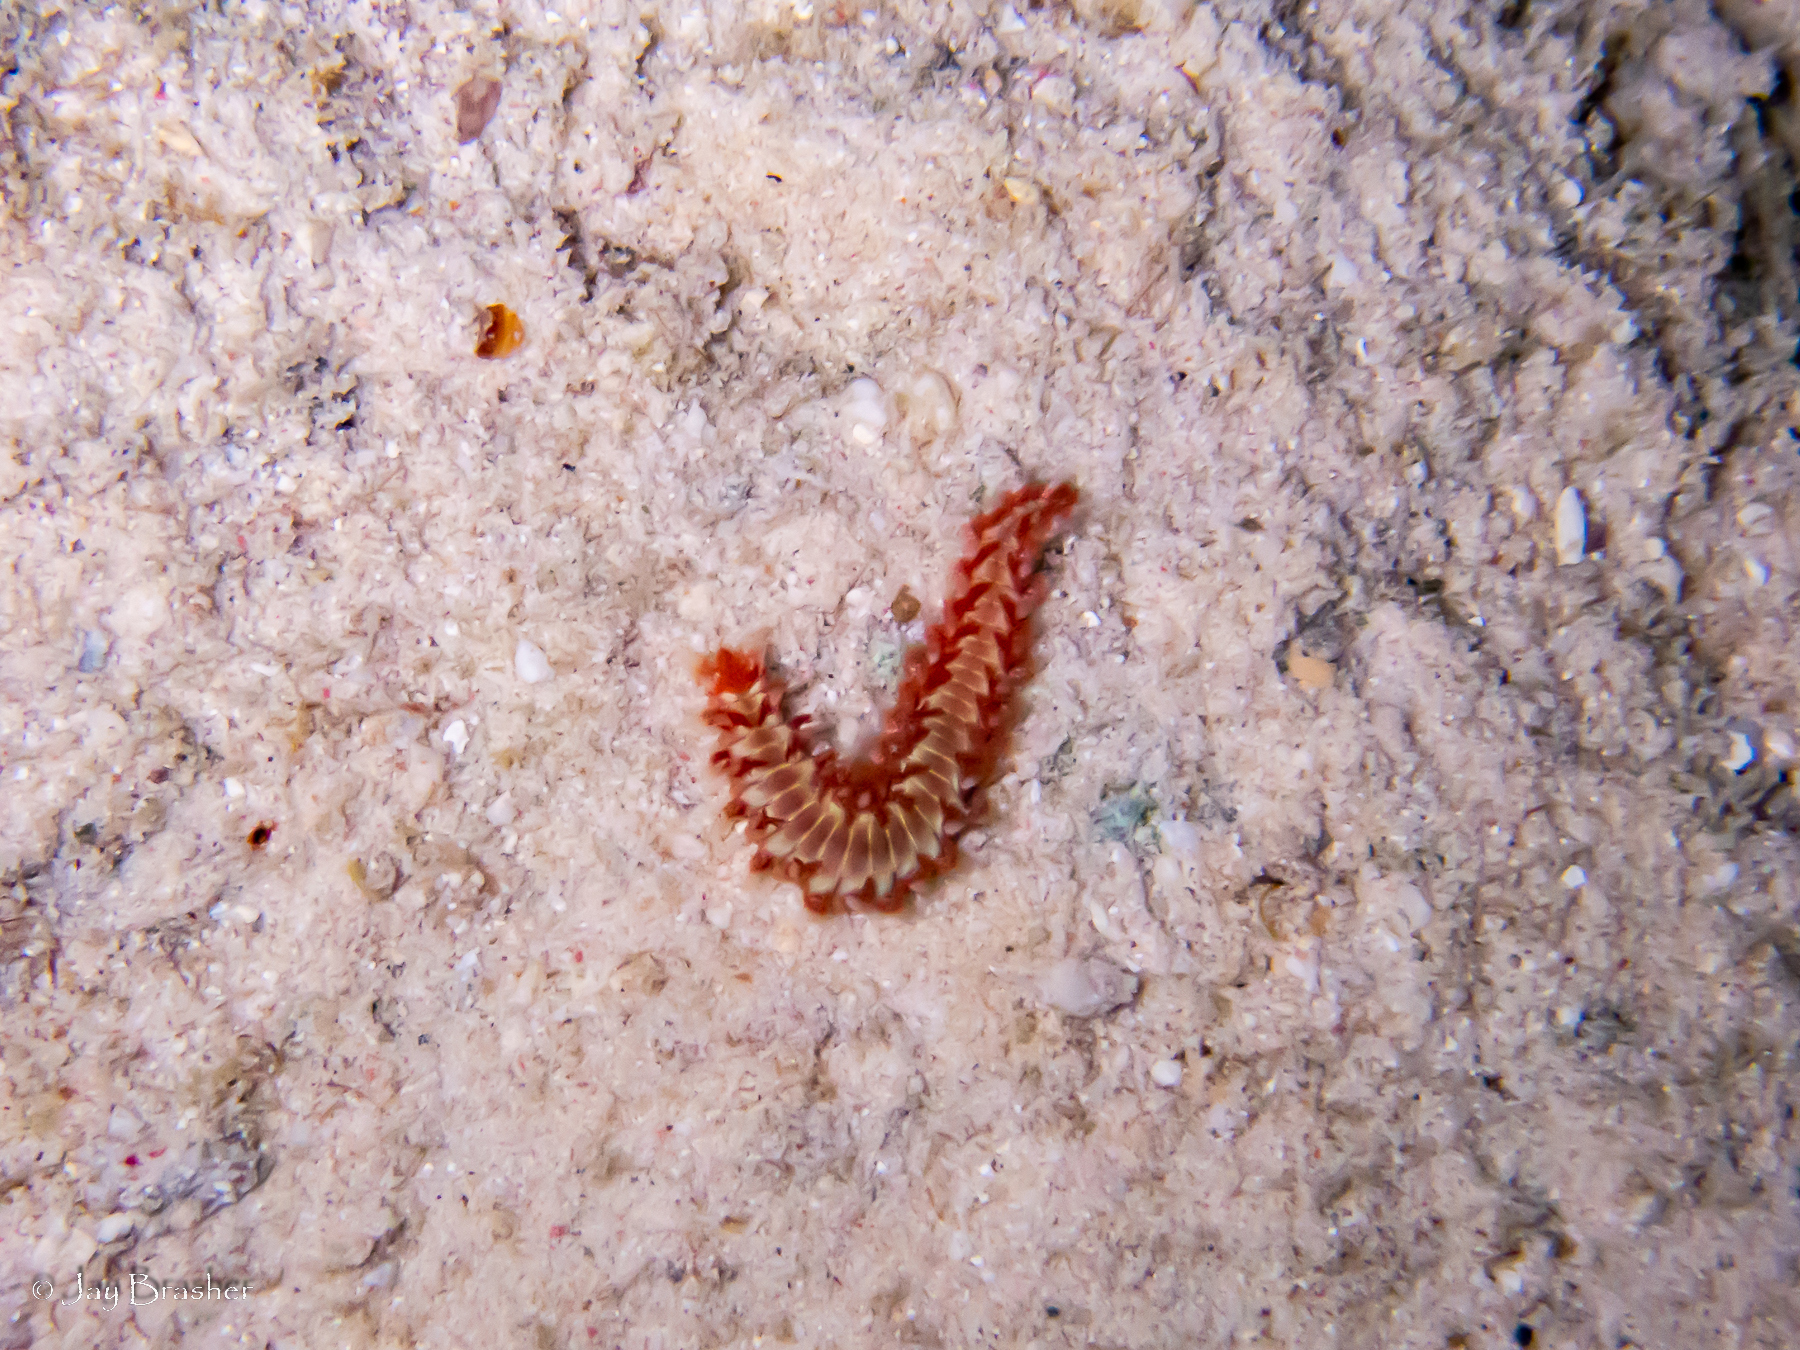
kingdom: Animalia
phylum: Annelida
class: Polychaeta
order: Amphinomida
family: Amphinomidae
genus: Hermodice
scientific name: Hermodice carunculata
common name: Bearded fireworm
